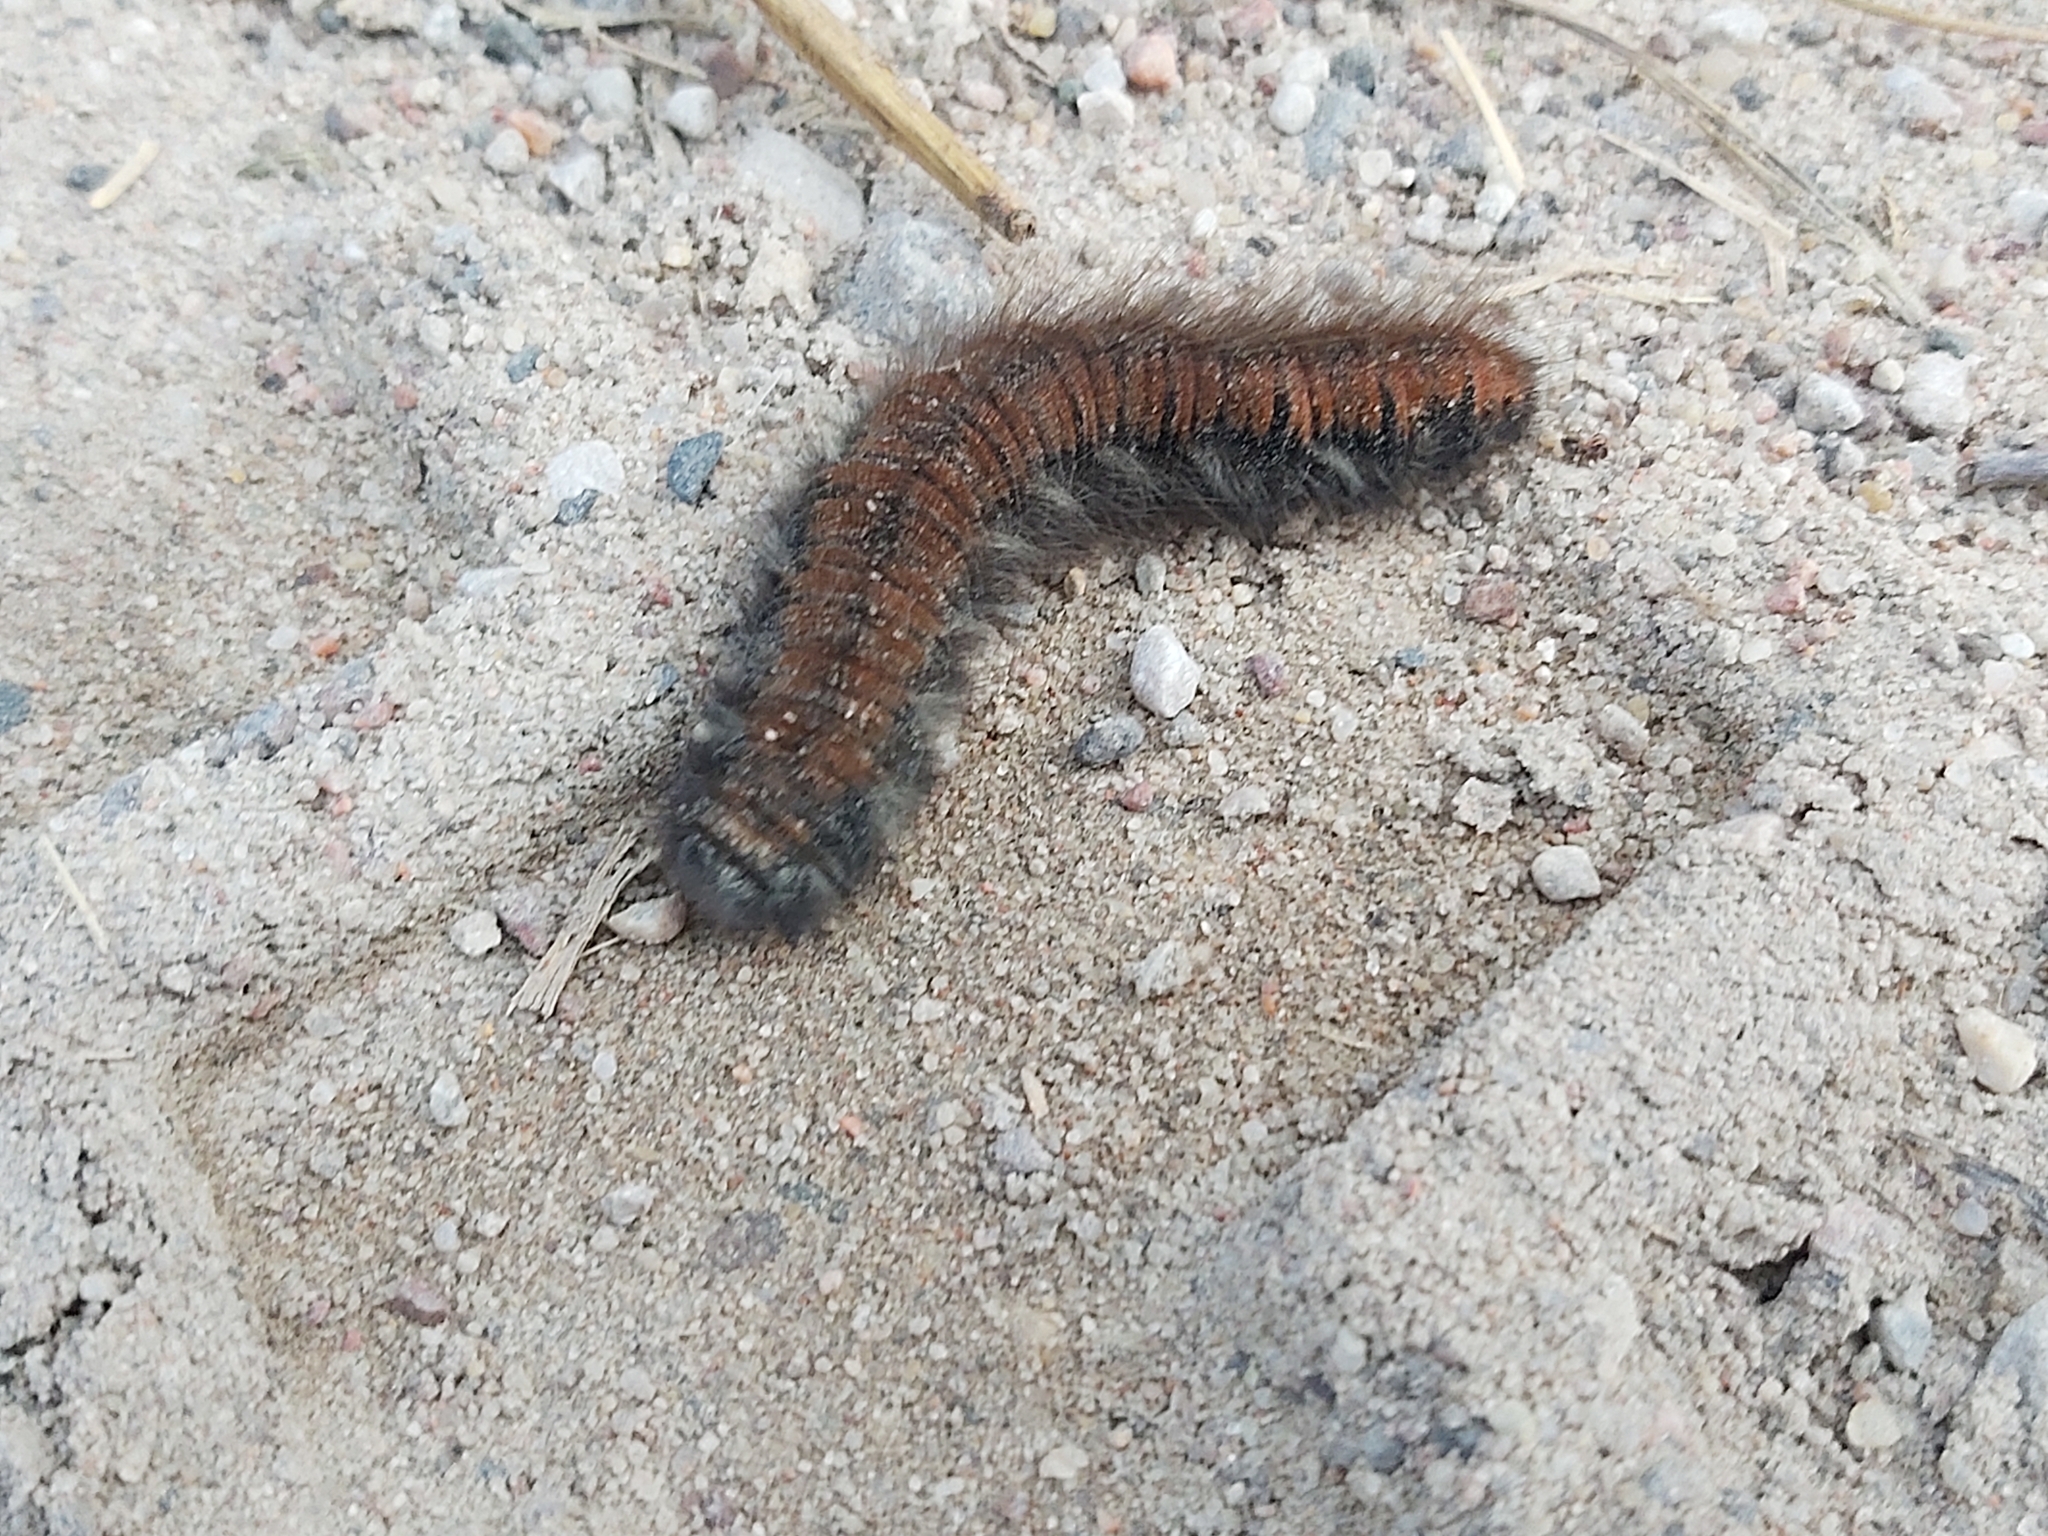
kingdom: Animalia
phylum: Arthropoda
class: Insecta
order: Lepidoptera
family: Lasiocampidae
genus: Macrothylacia
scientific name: Macrothylacia rubi
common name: Fox moth
